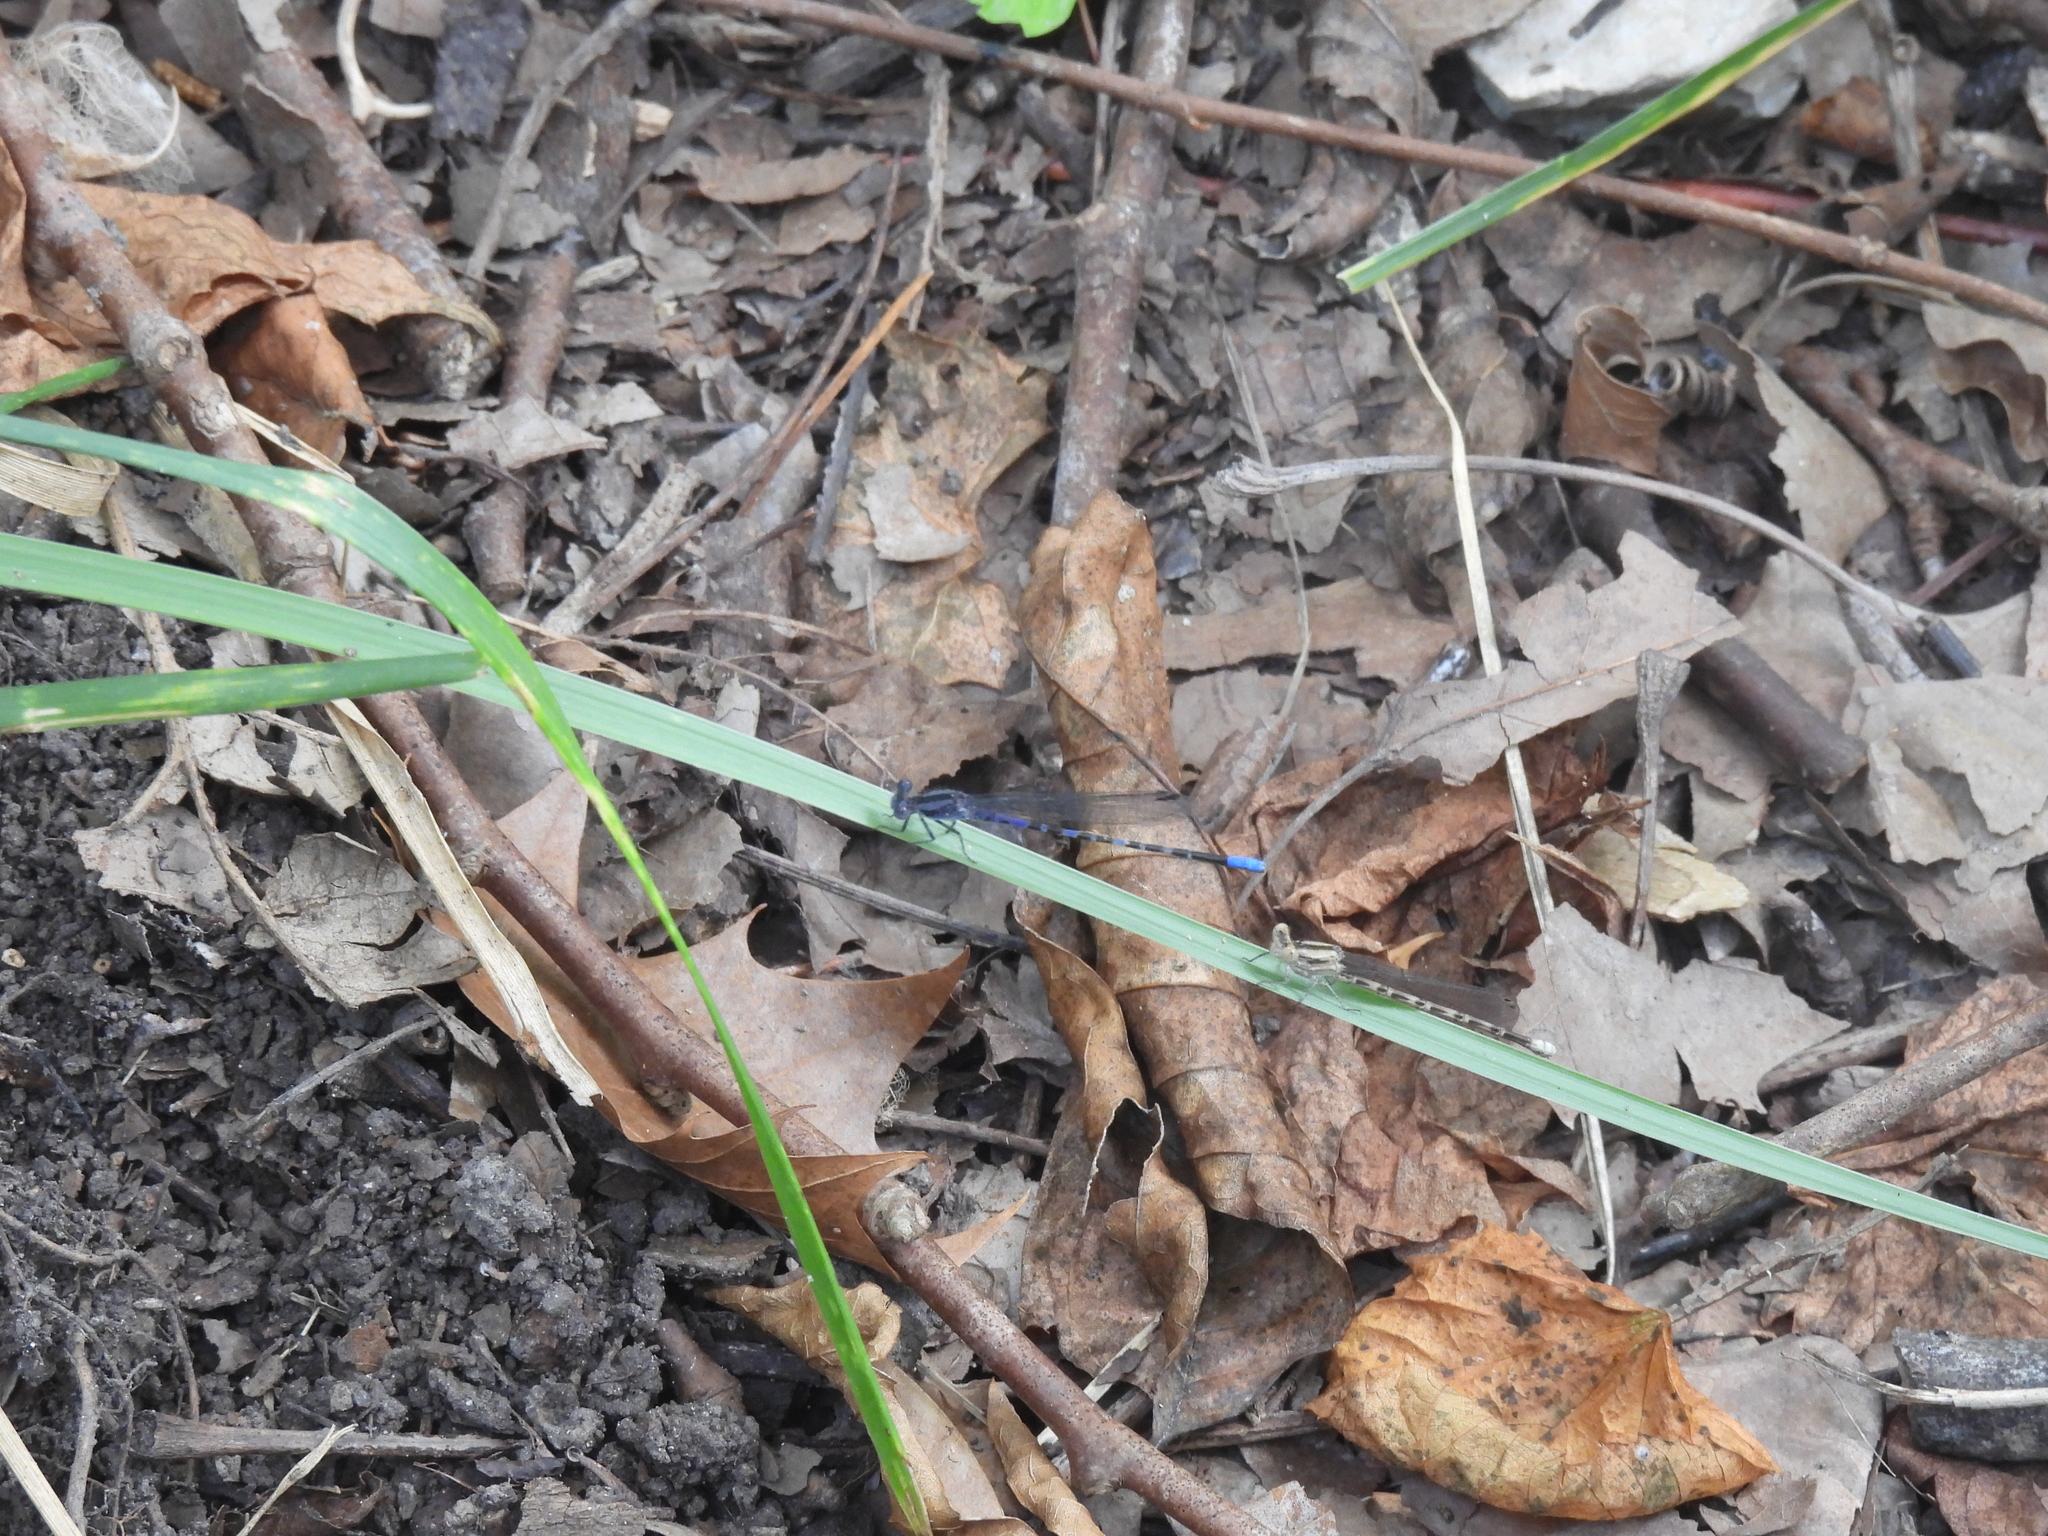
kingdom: Animalia
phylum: Arthropoda
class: Insecta
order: Odonata
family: Coenagrionidae
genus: Argia
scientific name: Argia immunda
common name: Kiowa dancer
